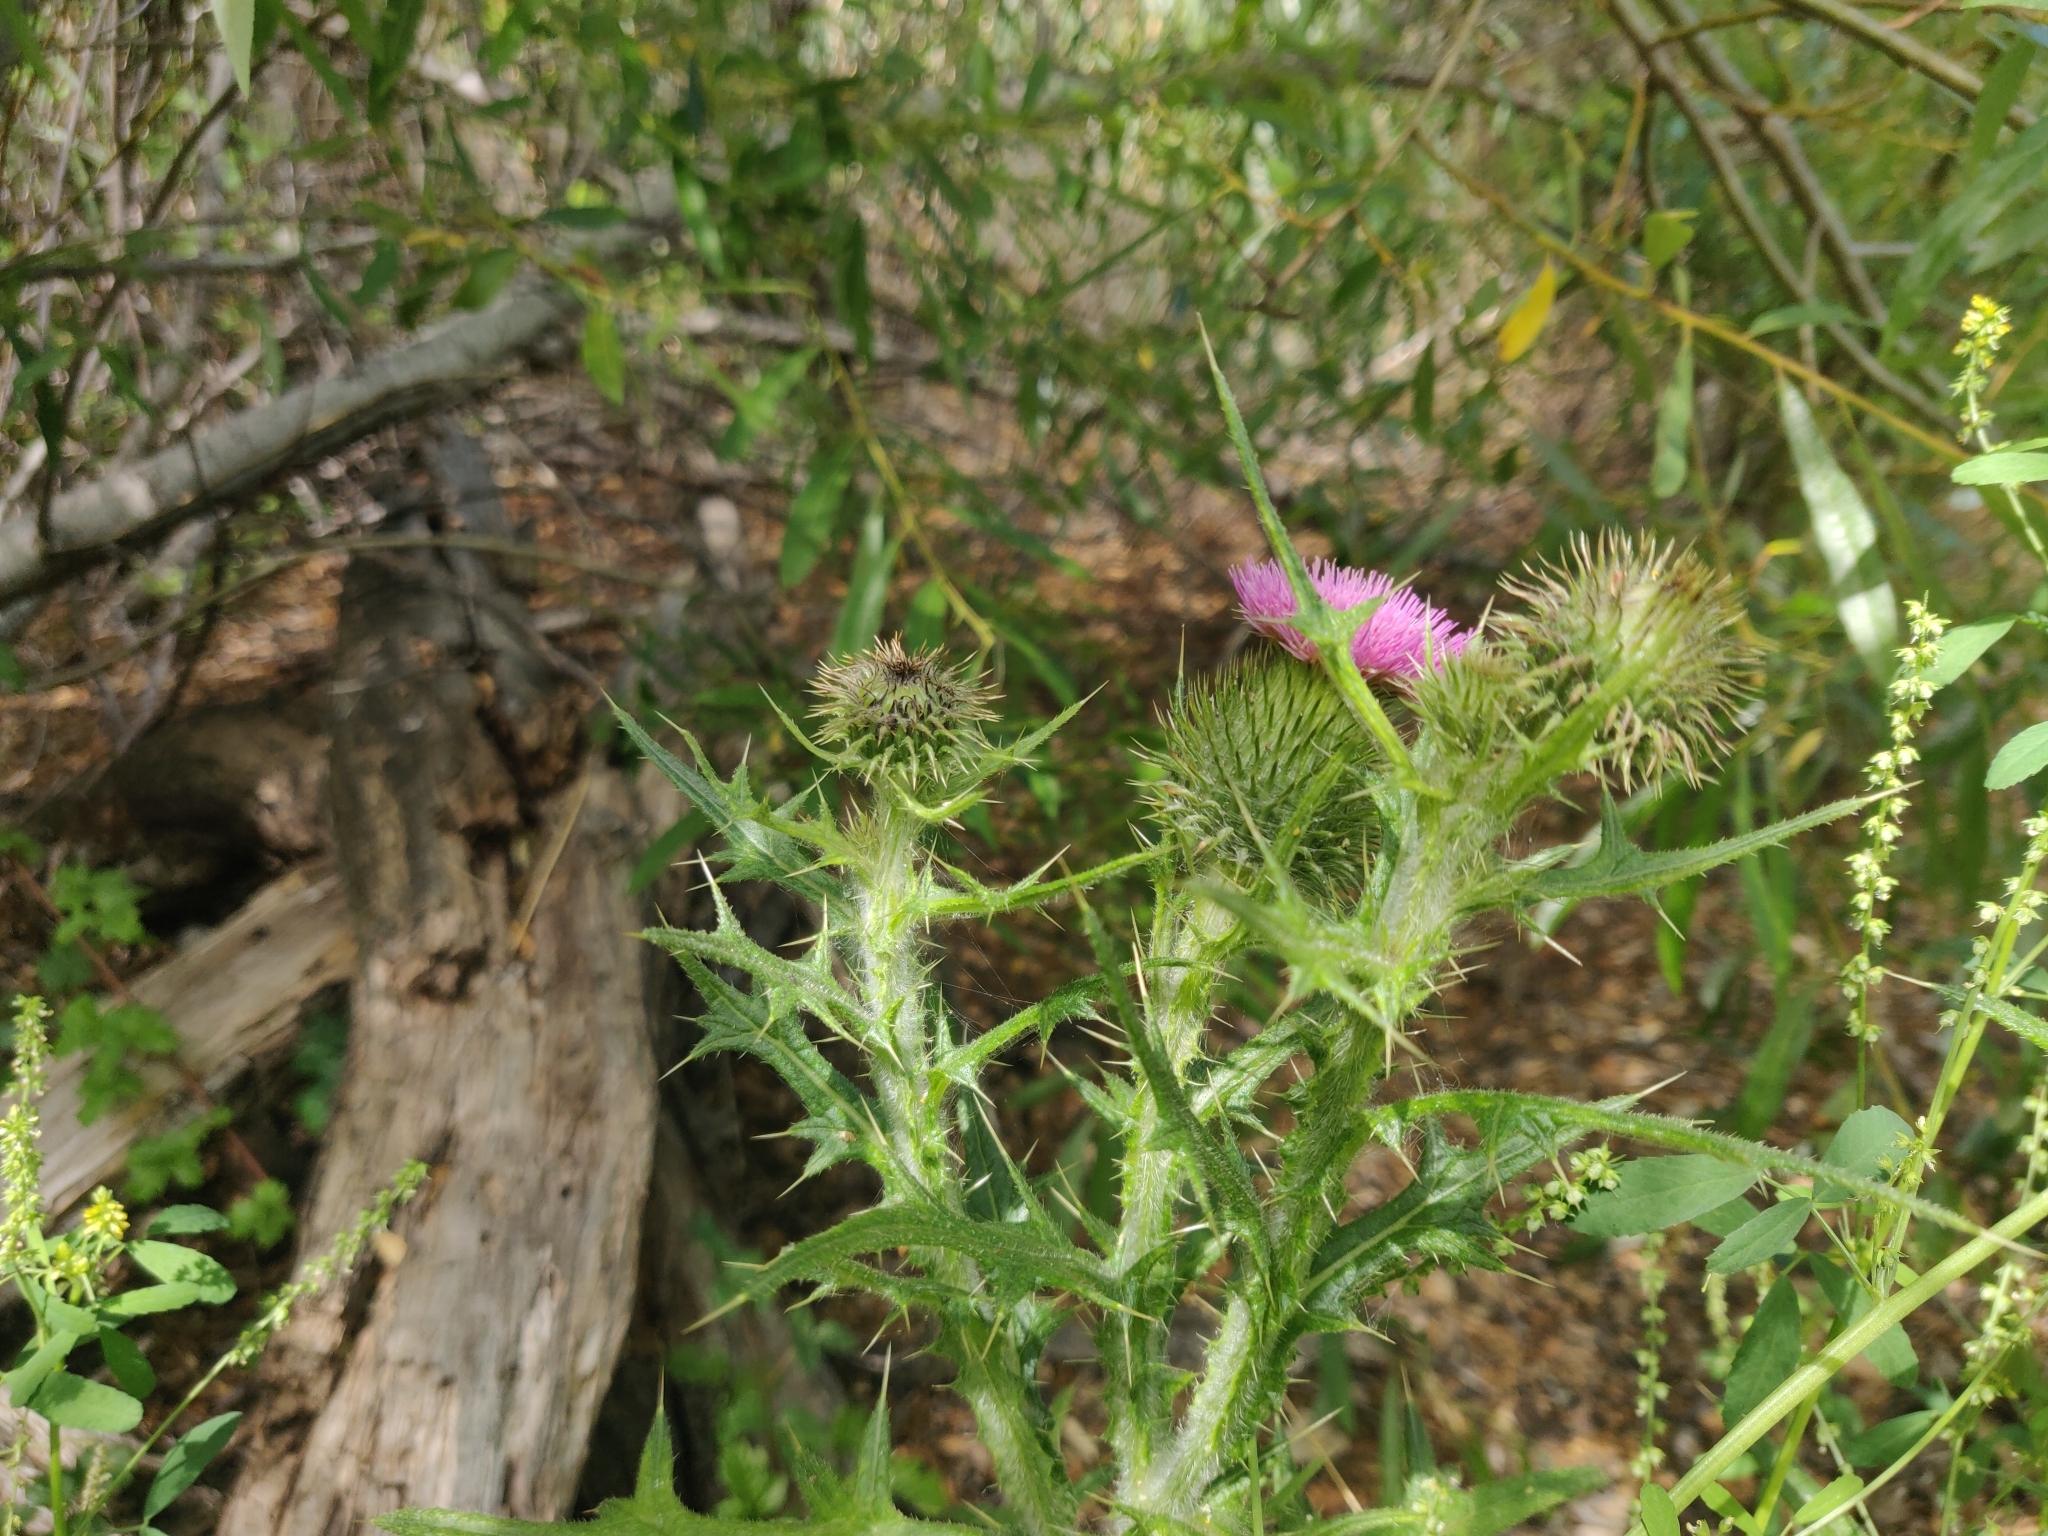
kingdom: Plantae
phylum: Tracheophyta
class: Magnoliopsida
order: Asterales
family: Asteraceae
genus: Cirsium
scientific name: Cirsium vulgare
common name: Bull thistle
